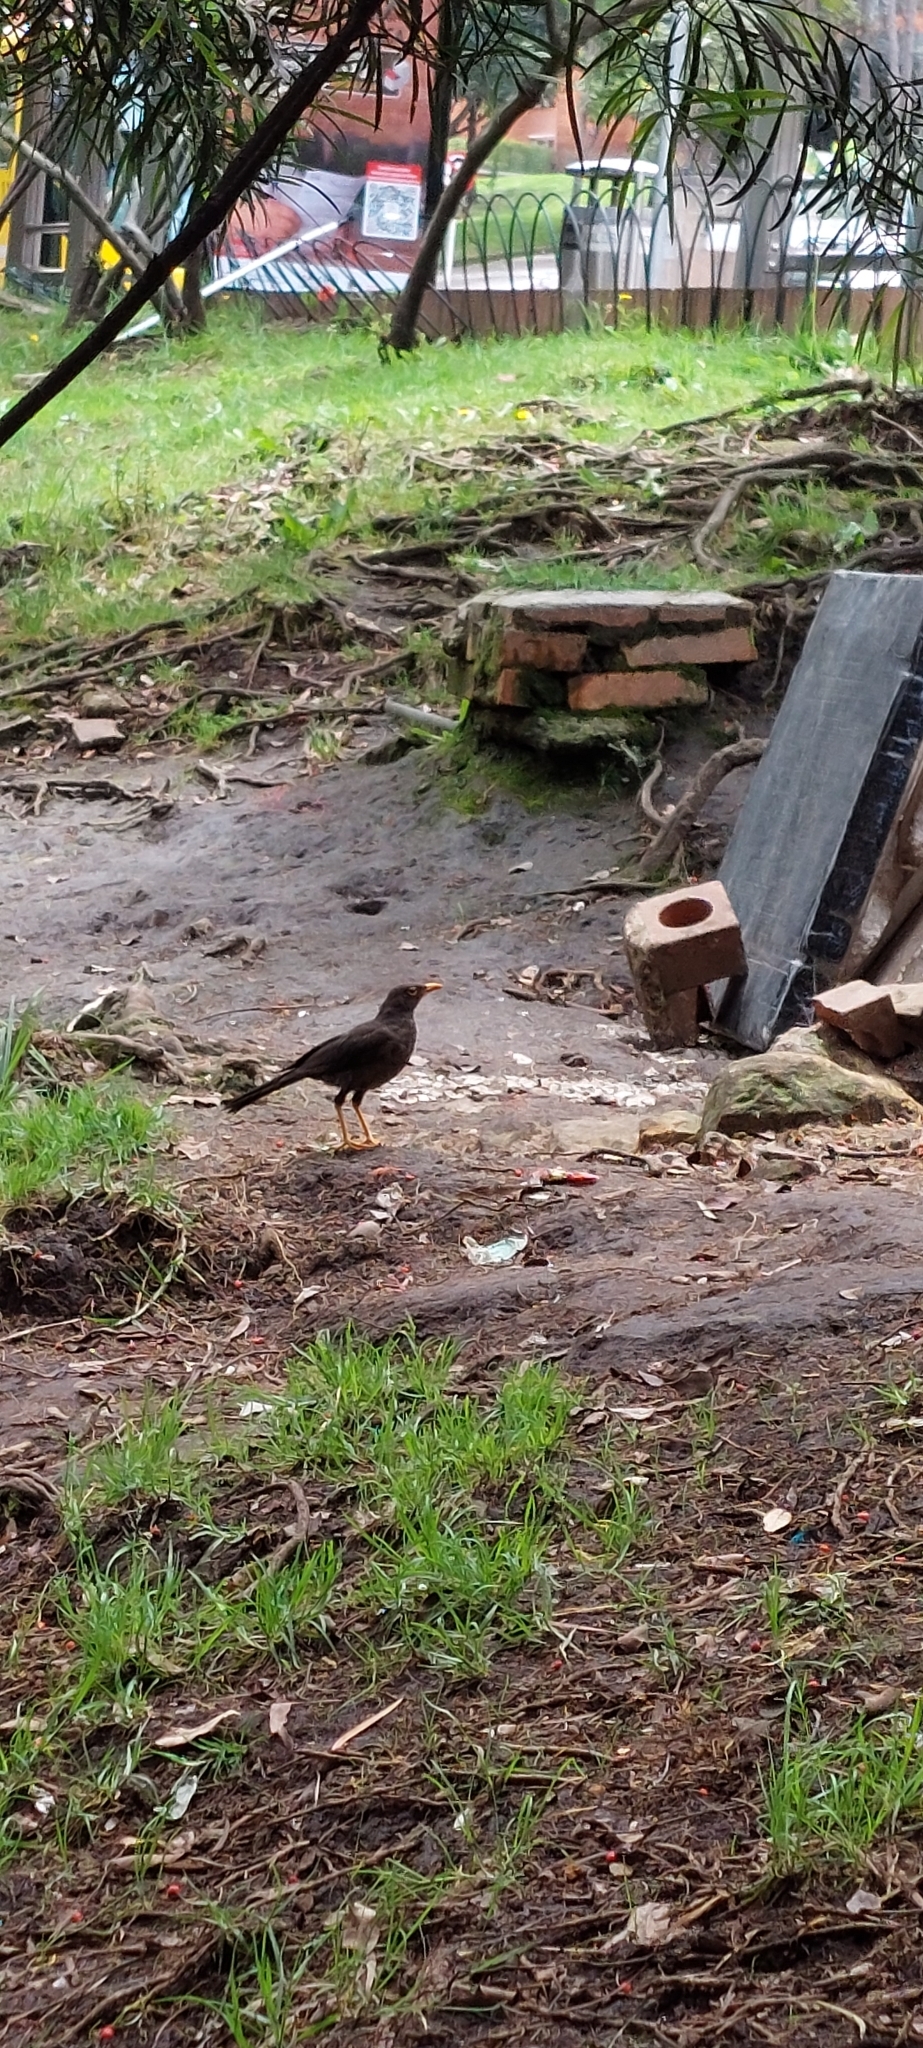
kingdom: Animalia
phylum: Chordata
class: Aves
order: Passeriformes
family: Turdidae
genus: Turdus
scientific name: Turdus fuscater
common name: Great thrush
